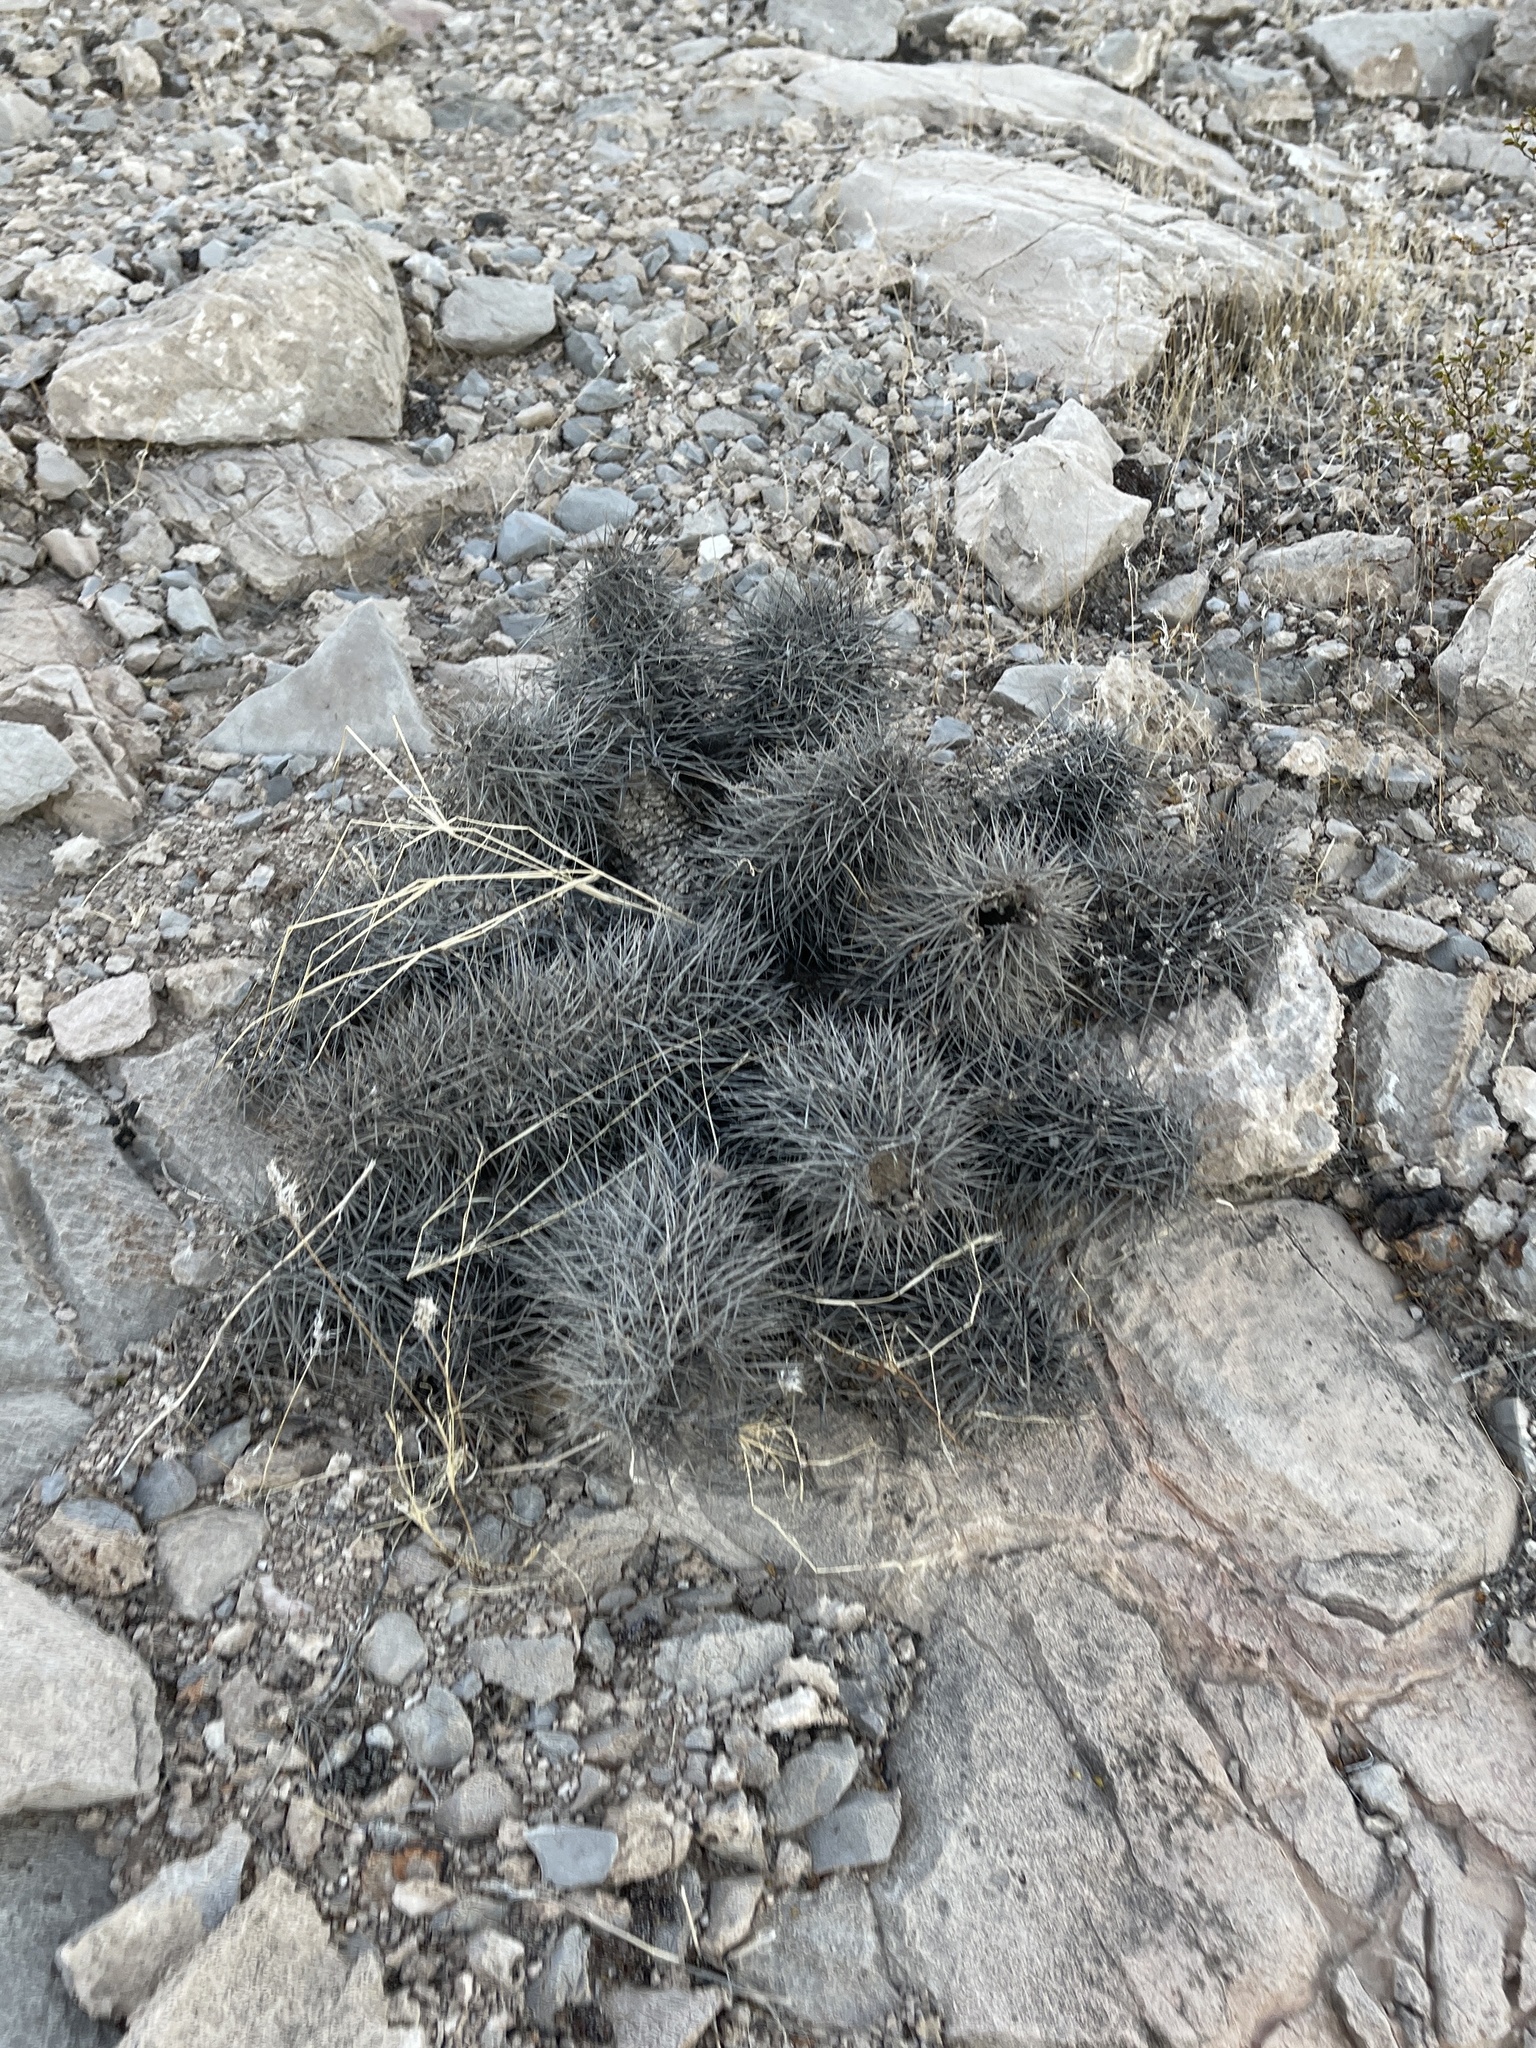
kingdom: Plantae
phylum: Tracheophyta
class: Magnoliopsida
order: Caryophyllales
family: Cactaceae
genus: Echinocereus
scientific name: Echinocereus engelmannii
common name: Engelmann's hedgehog cactus
